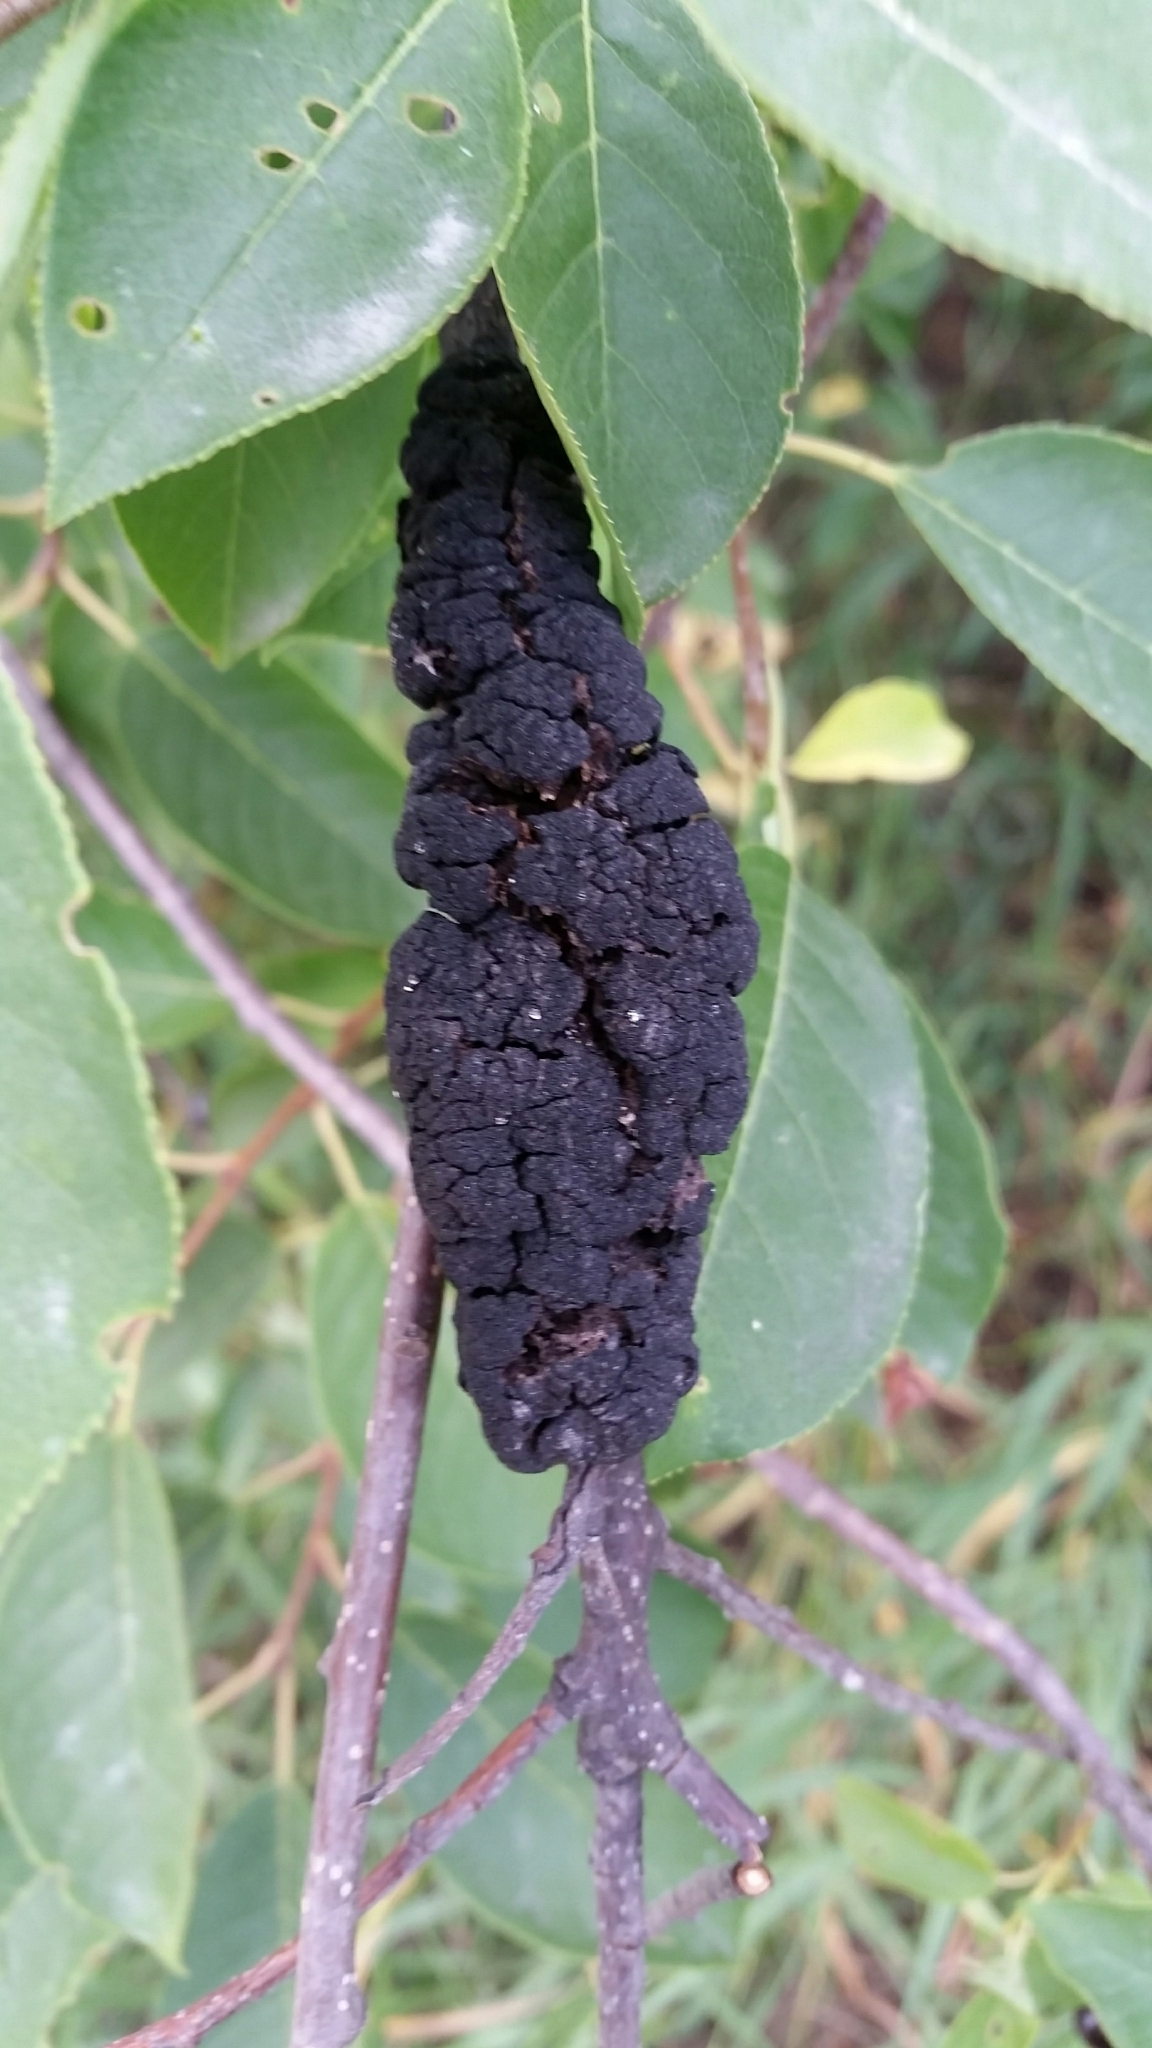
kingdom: Fungi
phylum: Ascomycota
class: Dothideomycetes
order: Venturiales
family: Venturiaceae
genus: Apiosporina
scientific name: Apiosporina morbosa
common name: Black knot
